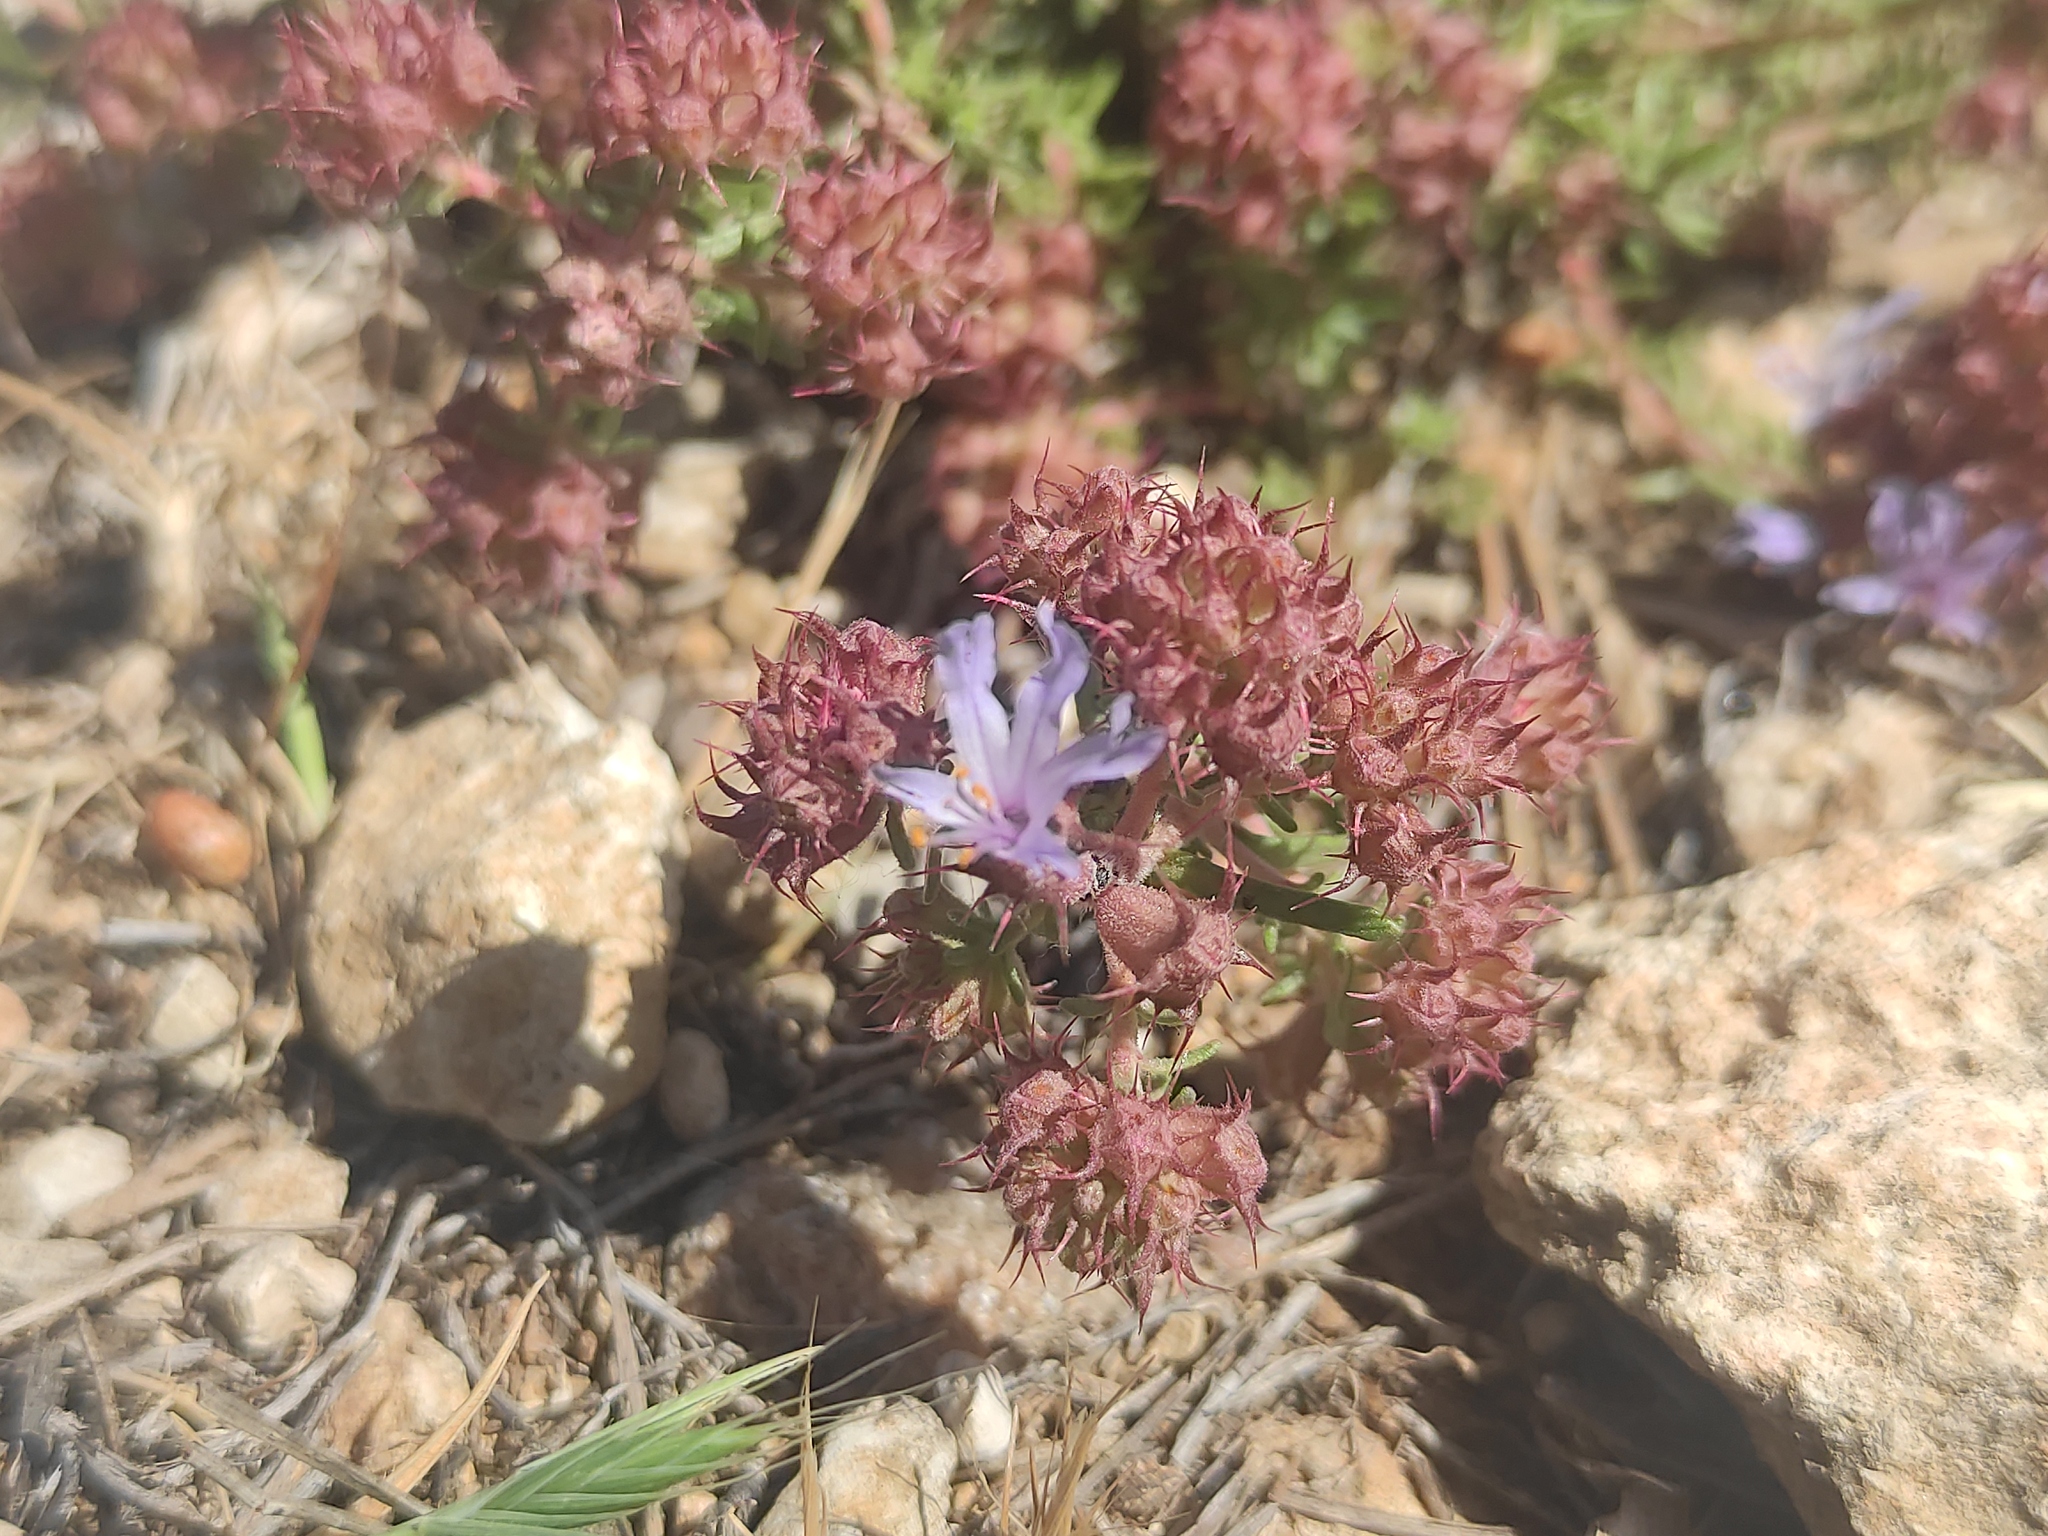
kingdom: Plantae
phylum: Tracheophyta
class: Magnoliopsida
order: Ericales
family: Primulaceae
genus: Coris
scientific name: Coris monspeliensis
